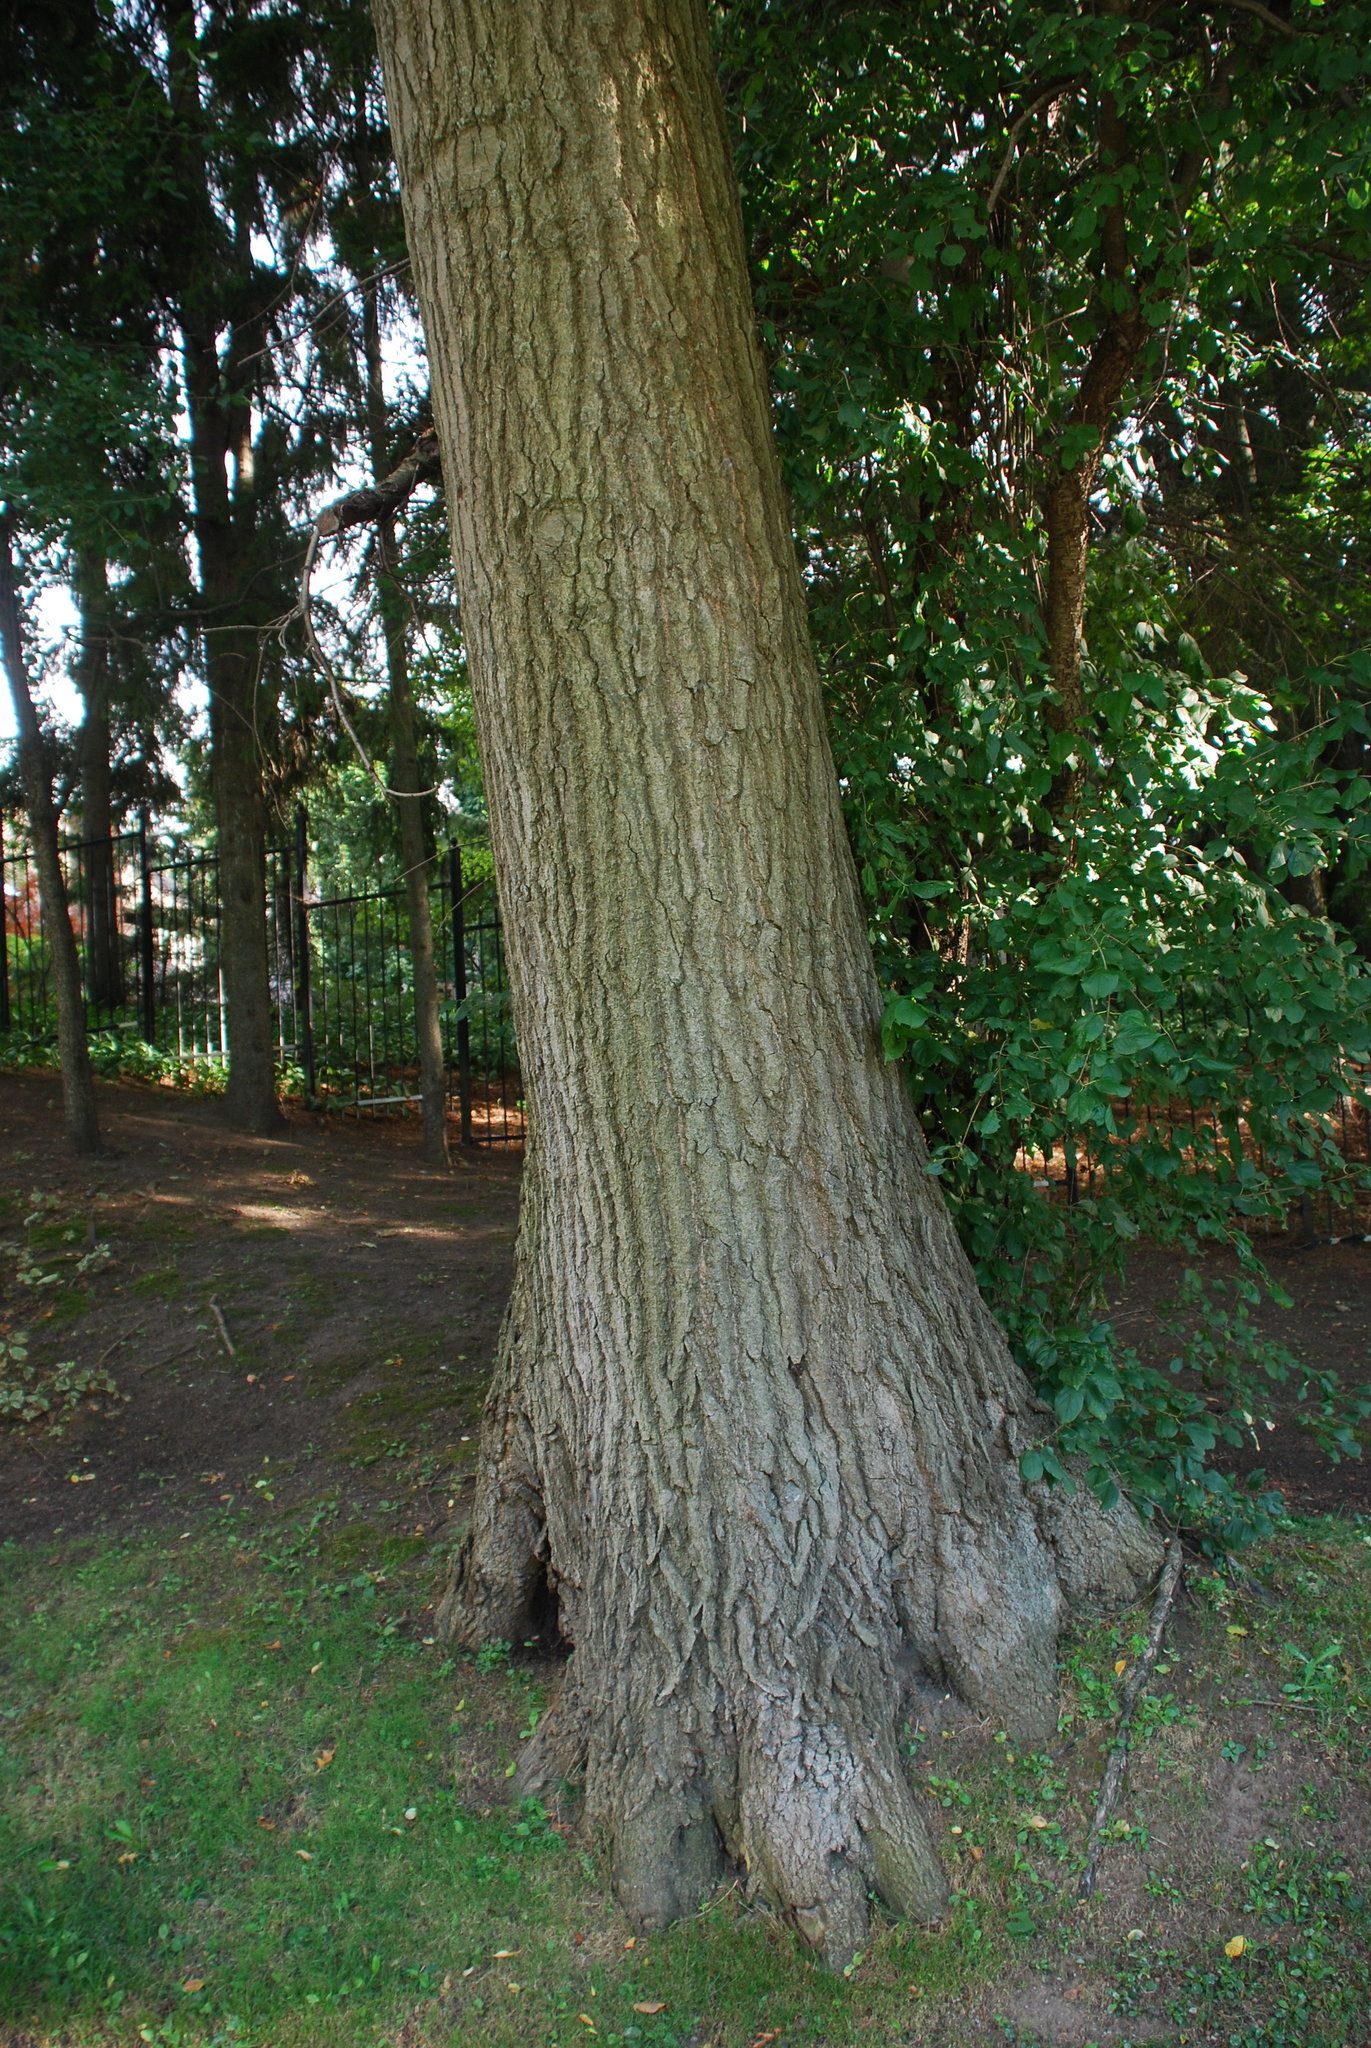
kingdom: Plantae
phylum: Tracheophyta
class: Magnoliopsida
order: Fagales
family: Fagaceae
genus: Quercus
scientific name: Quercus ellipsoidalis
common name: Hill's oak
